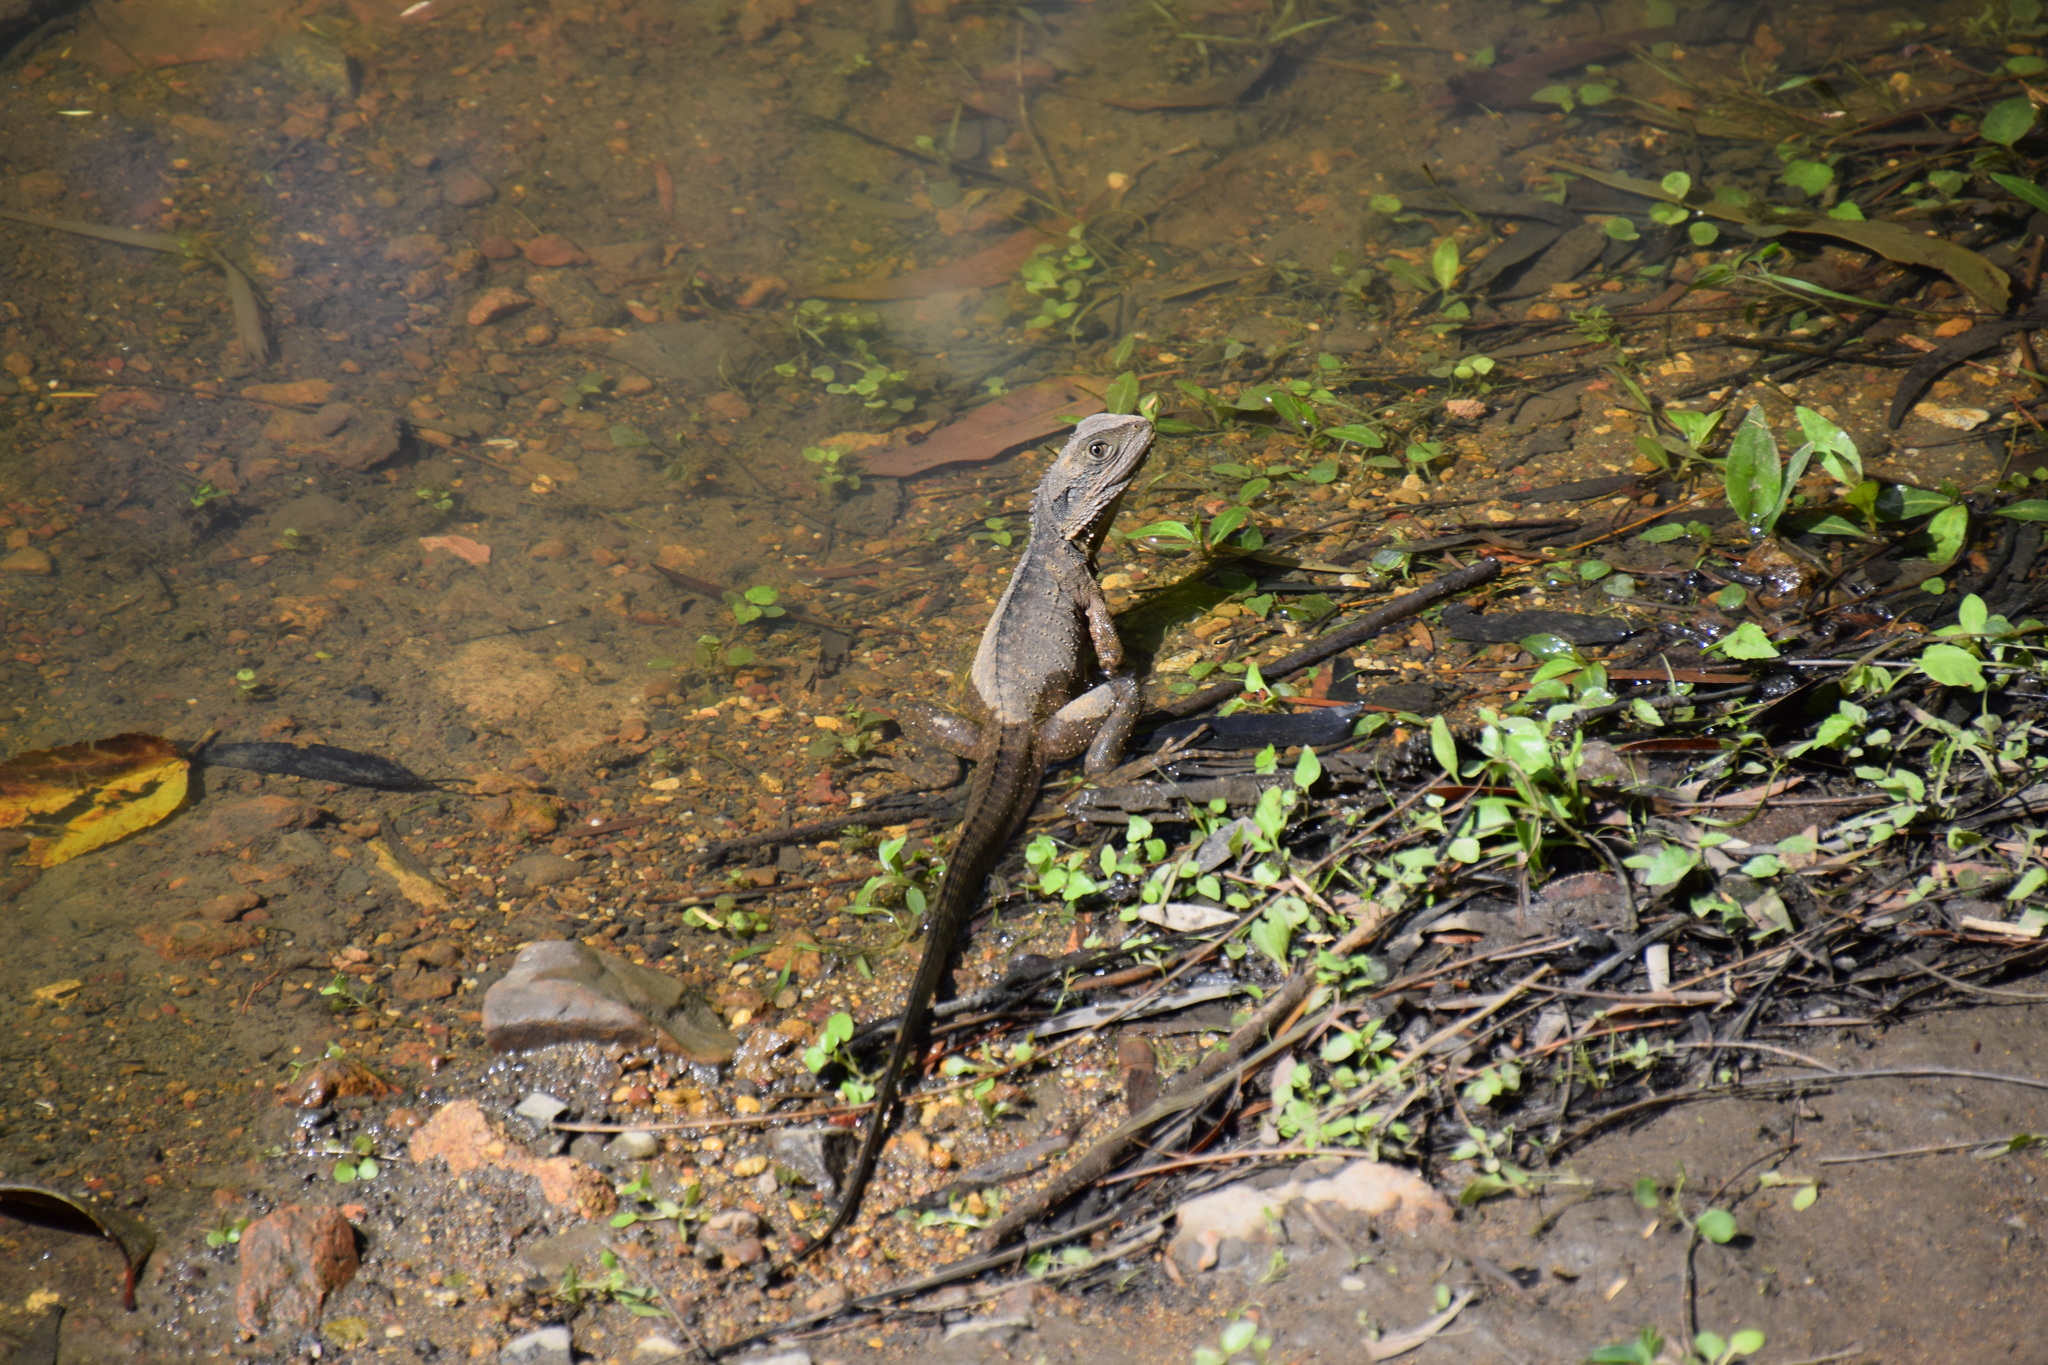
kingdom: Animalia
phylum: Chordata
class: Squamata
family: Agamidae
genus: Intellagama
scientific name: Intellagama lesueurii
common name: Eastern water dragon
